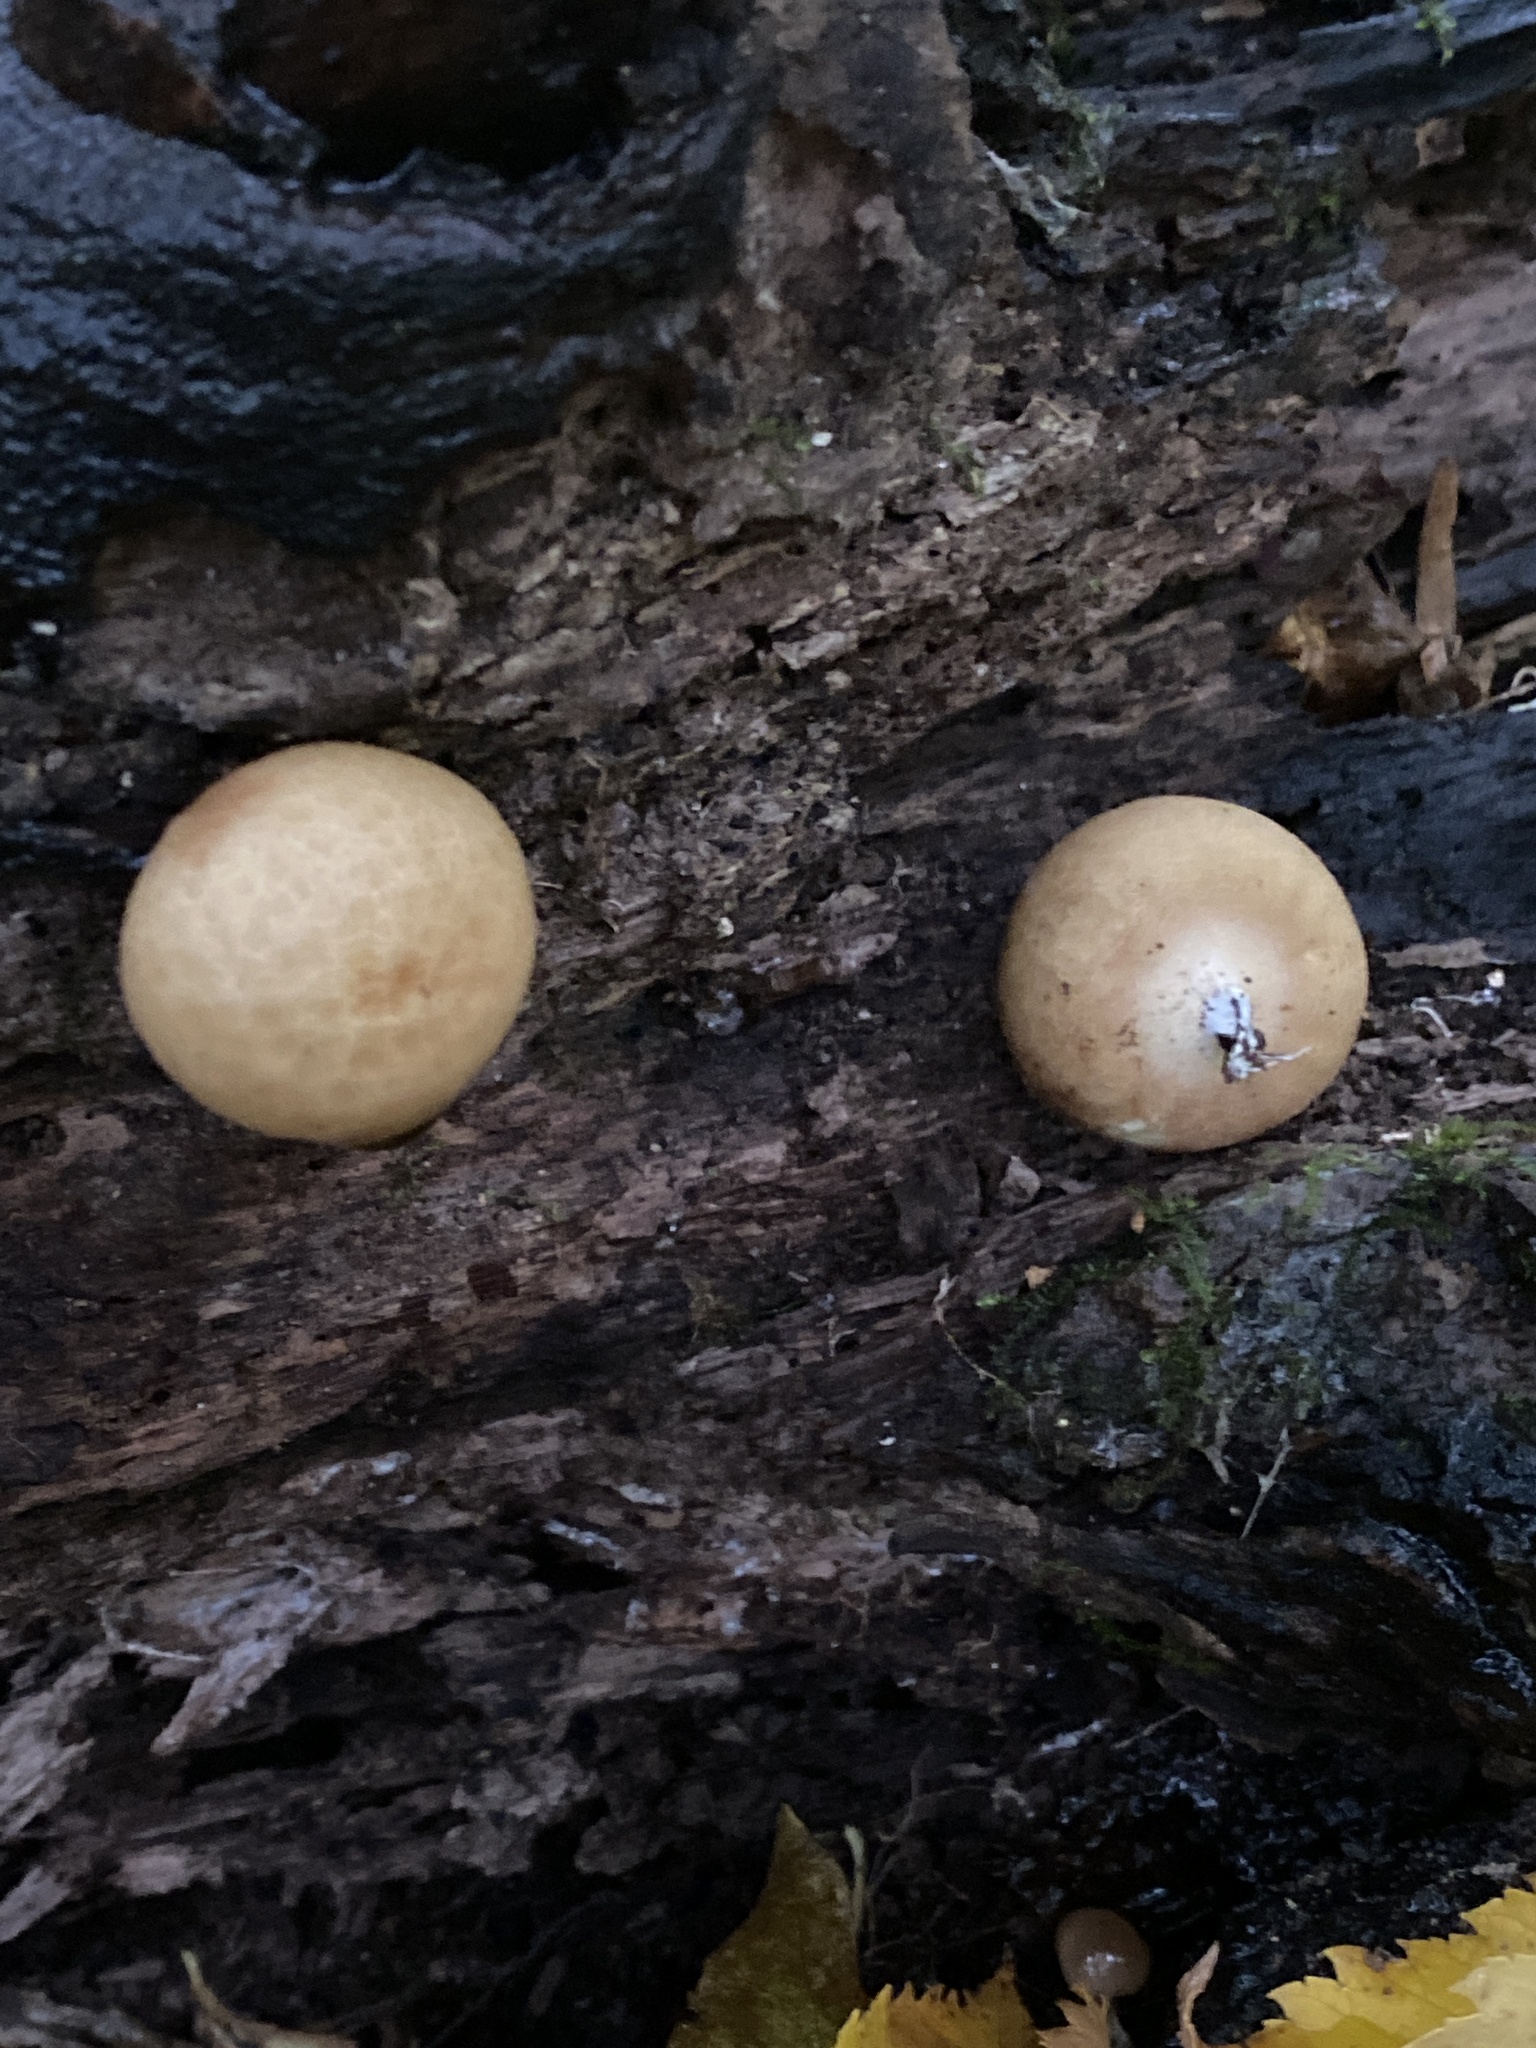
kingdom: Fungi
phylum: Basidiomycota
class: Agaricomycetes
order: Agaricales
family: Lycoperdaceae
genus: Apioperdon
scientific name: Apioperdon pyriforme
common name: Pear-shaped puffball
